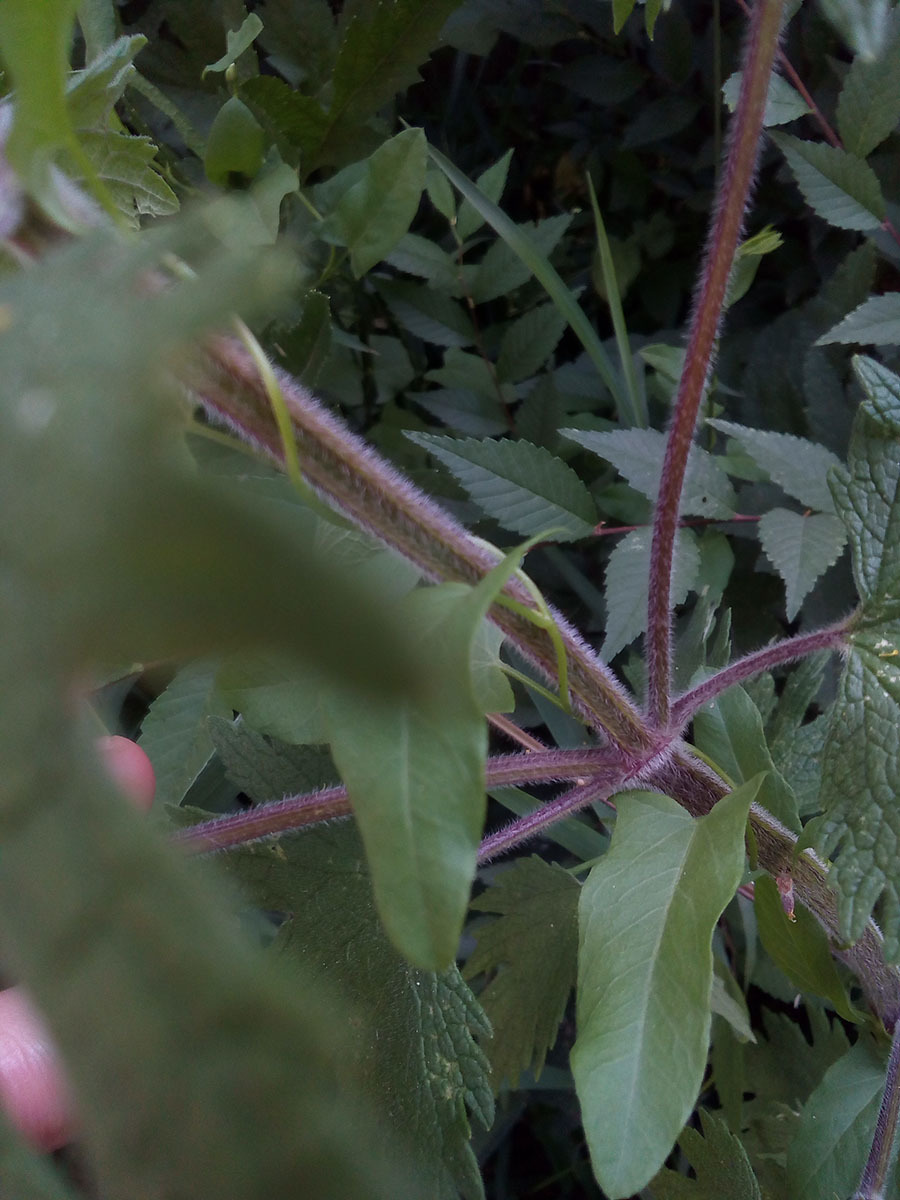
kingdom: Plantae
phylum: Tracheophyta
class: Magnoliopsida
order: Lamiales
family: Lamiaceae
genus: Leonurus
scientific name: Leonurus quinquelobatus
